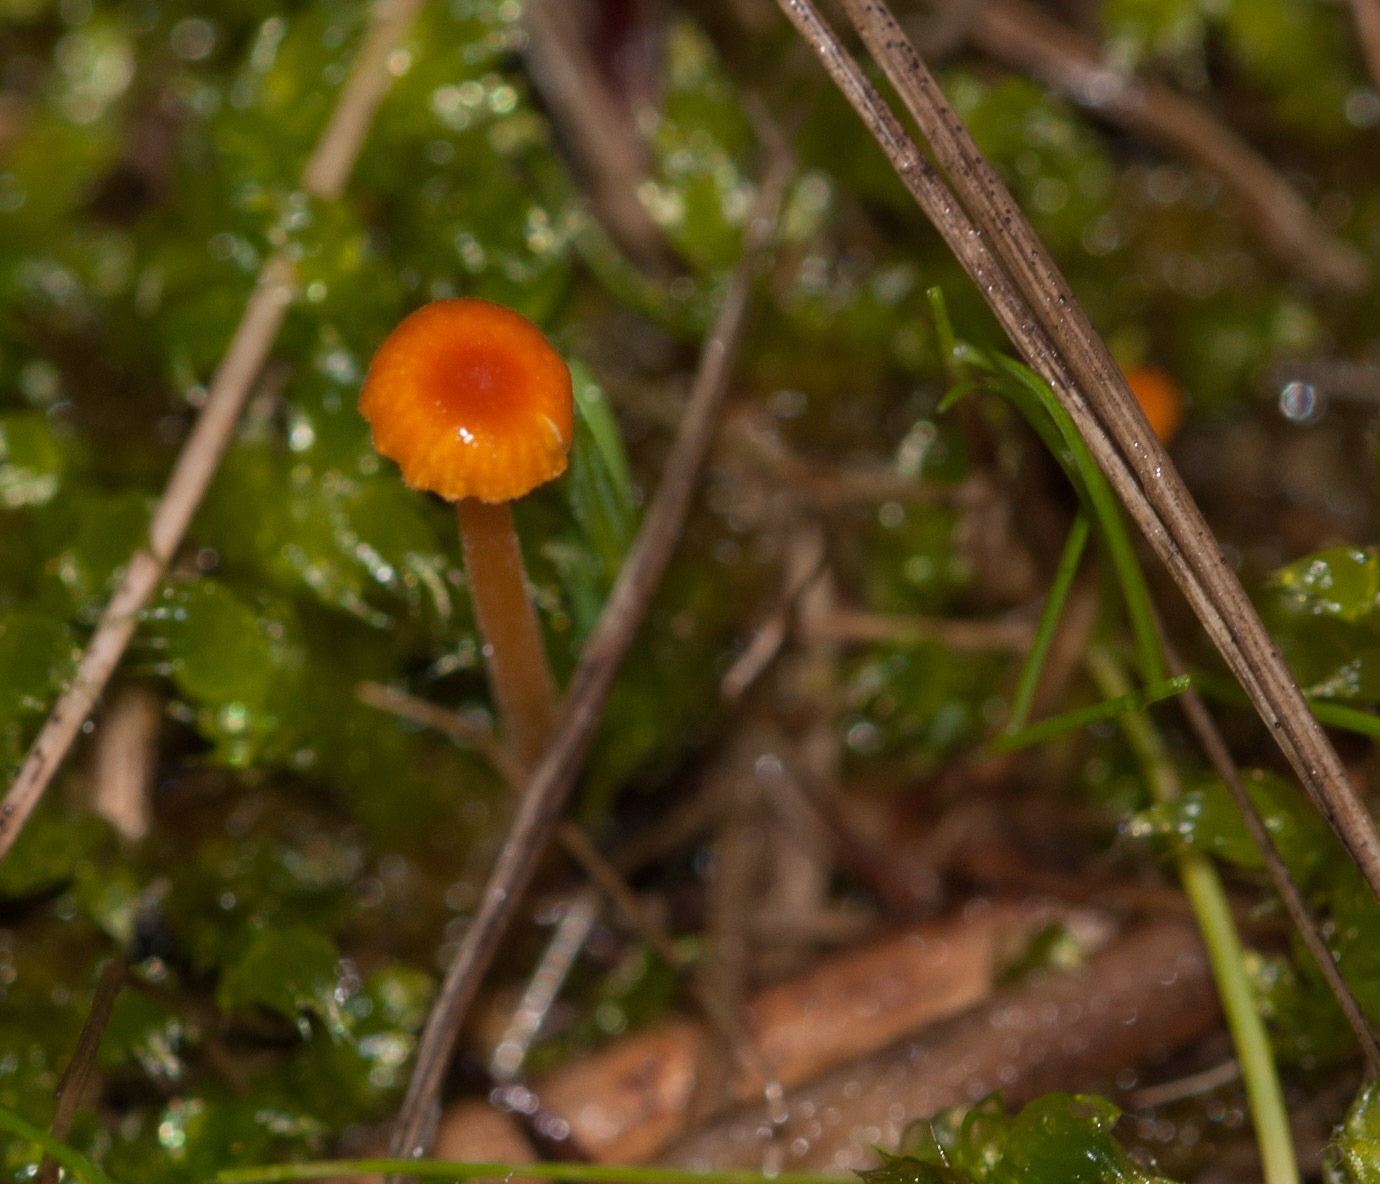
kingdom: Fungi
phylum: Basidiomycota
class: Agaricomycetes
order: Hymenochaetales
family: Rickenellaceae
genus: Rickenella
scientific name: Rickenella fibula
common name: Orange mosscap
